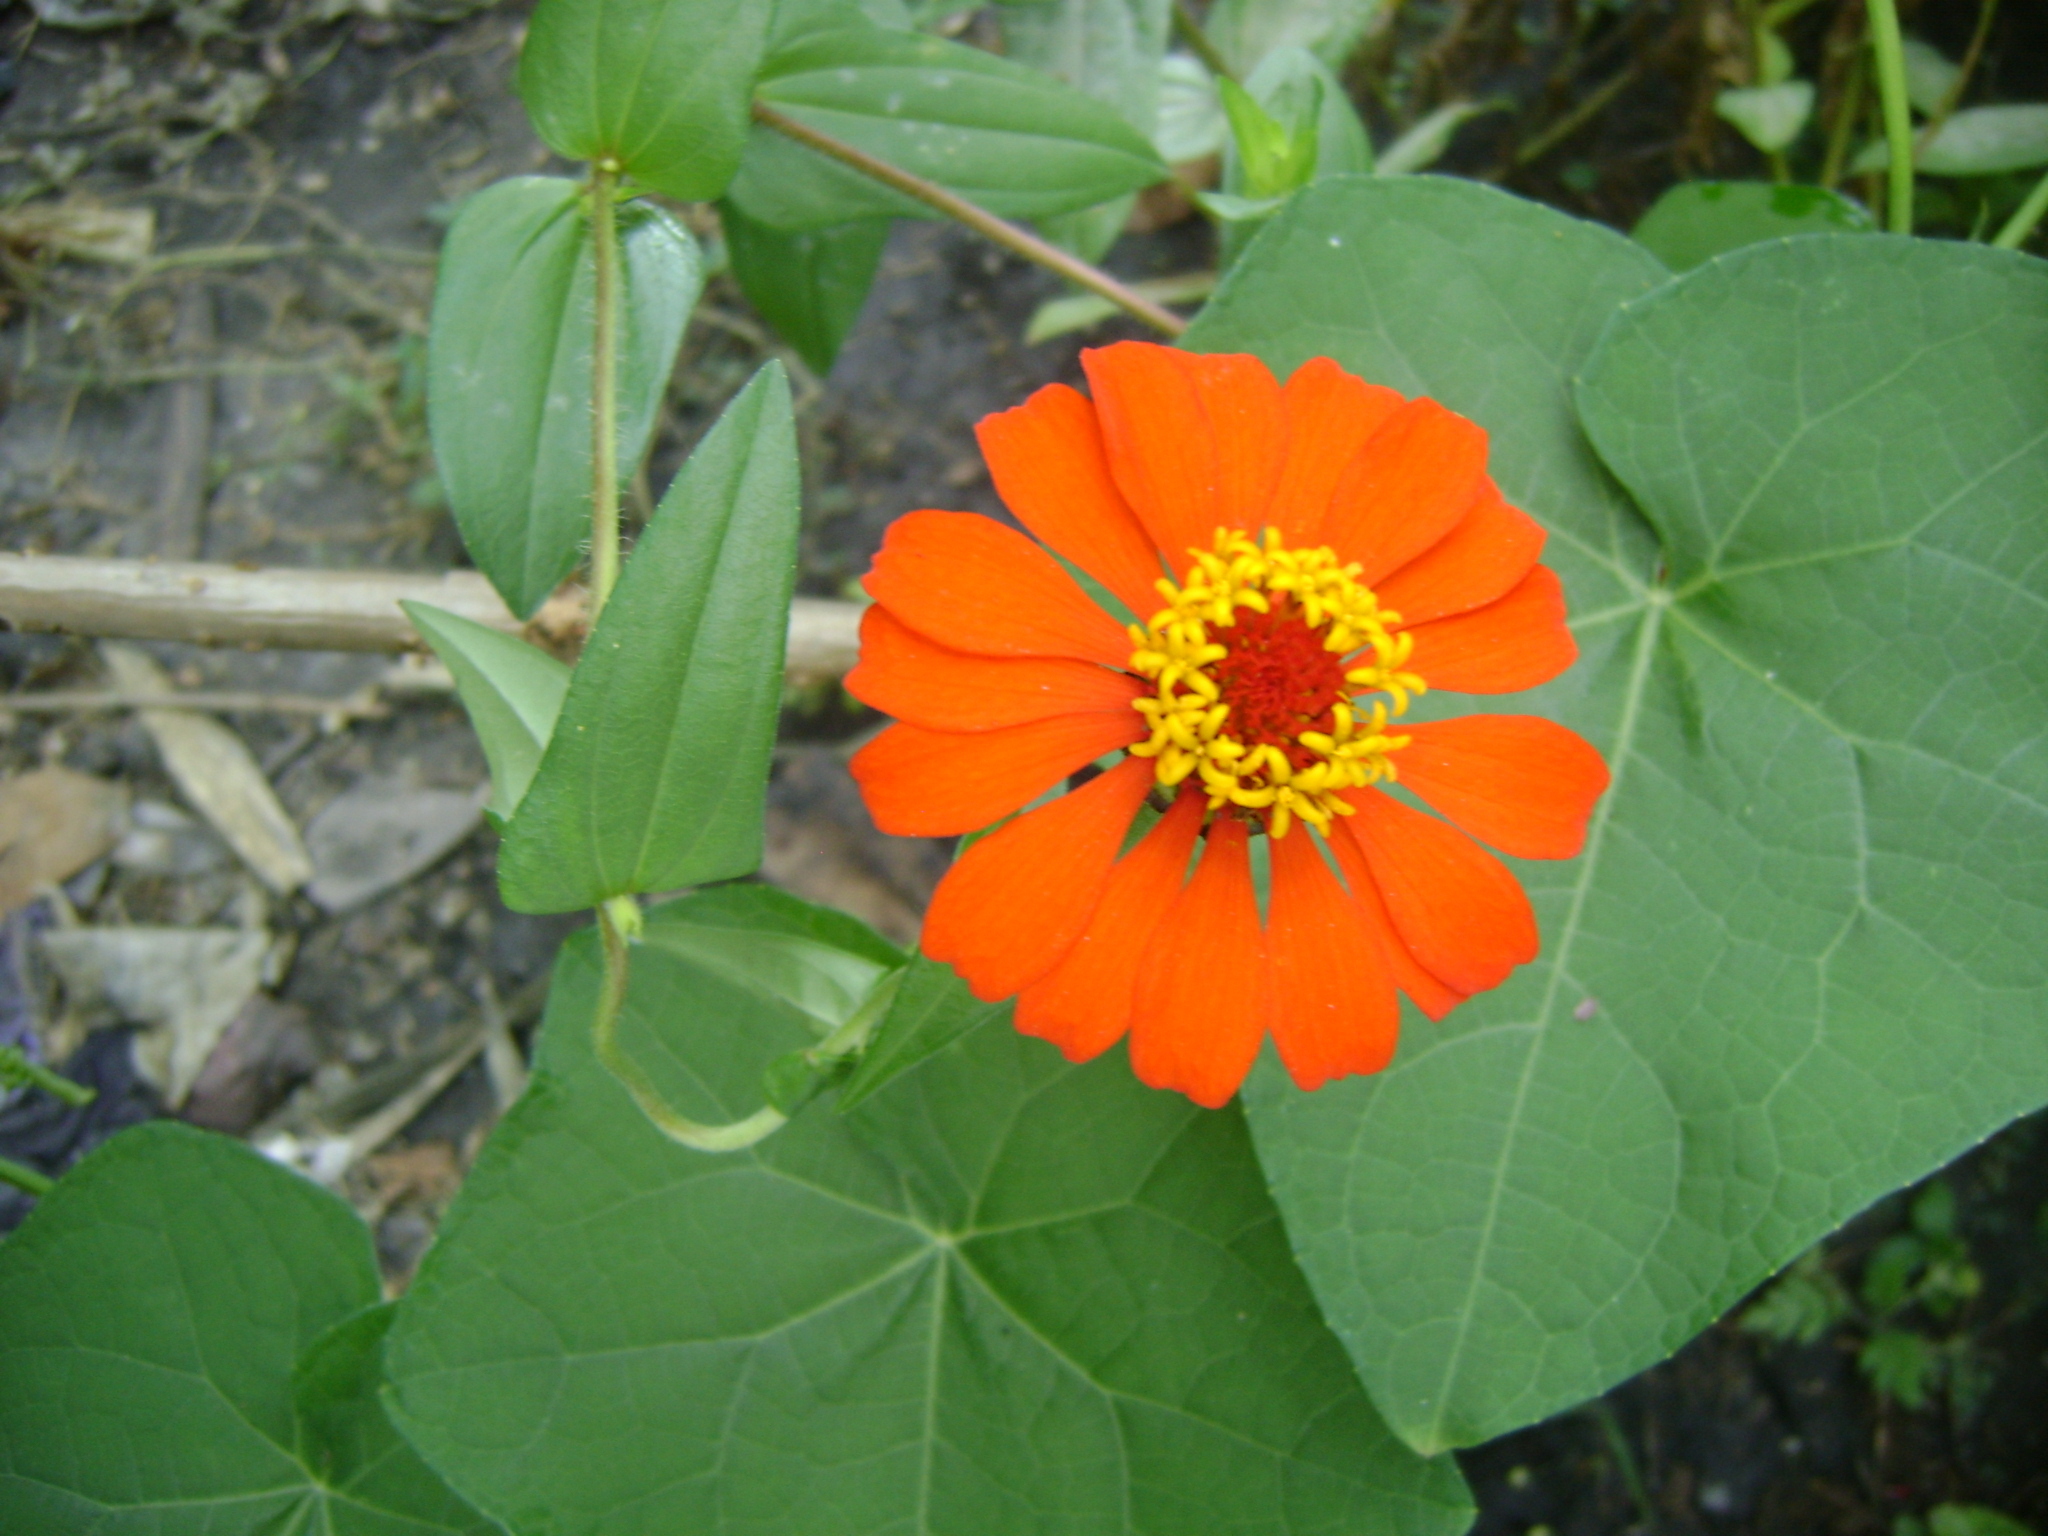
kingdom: Plantae
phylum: Tracheophyta
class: Magnoliopsida
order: Asterales
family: Asteraceae
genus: Zinnia
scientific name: Zinnia elegans
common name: Youth-and-age
